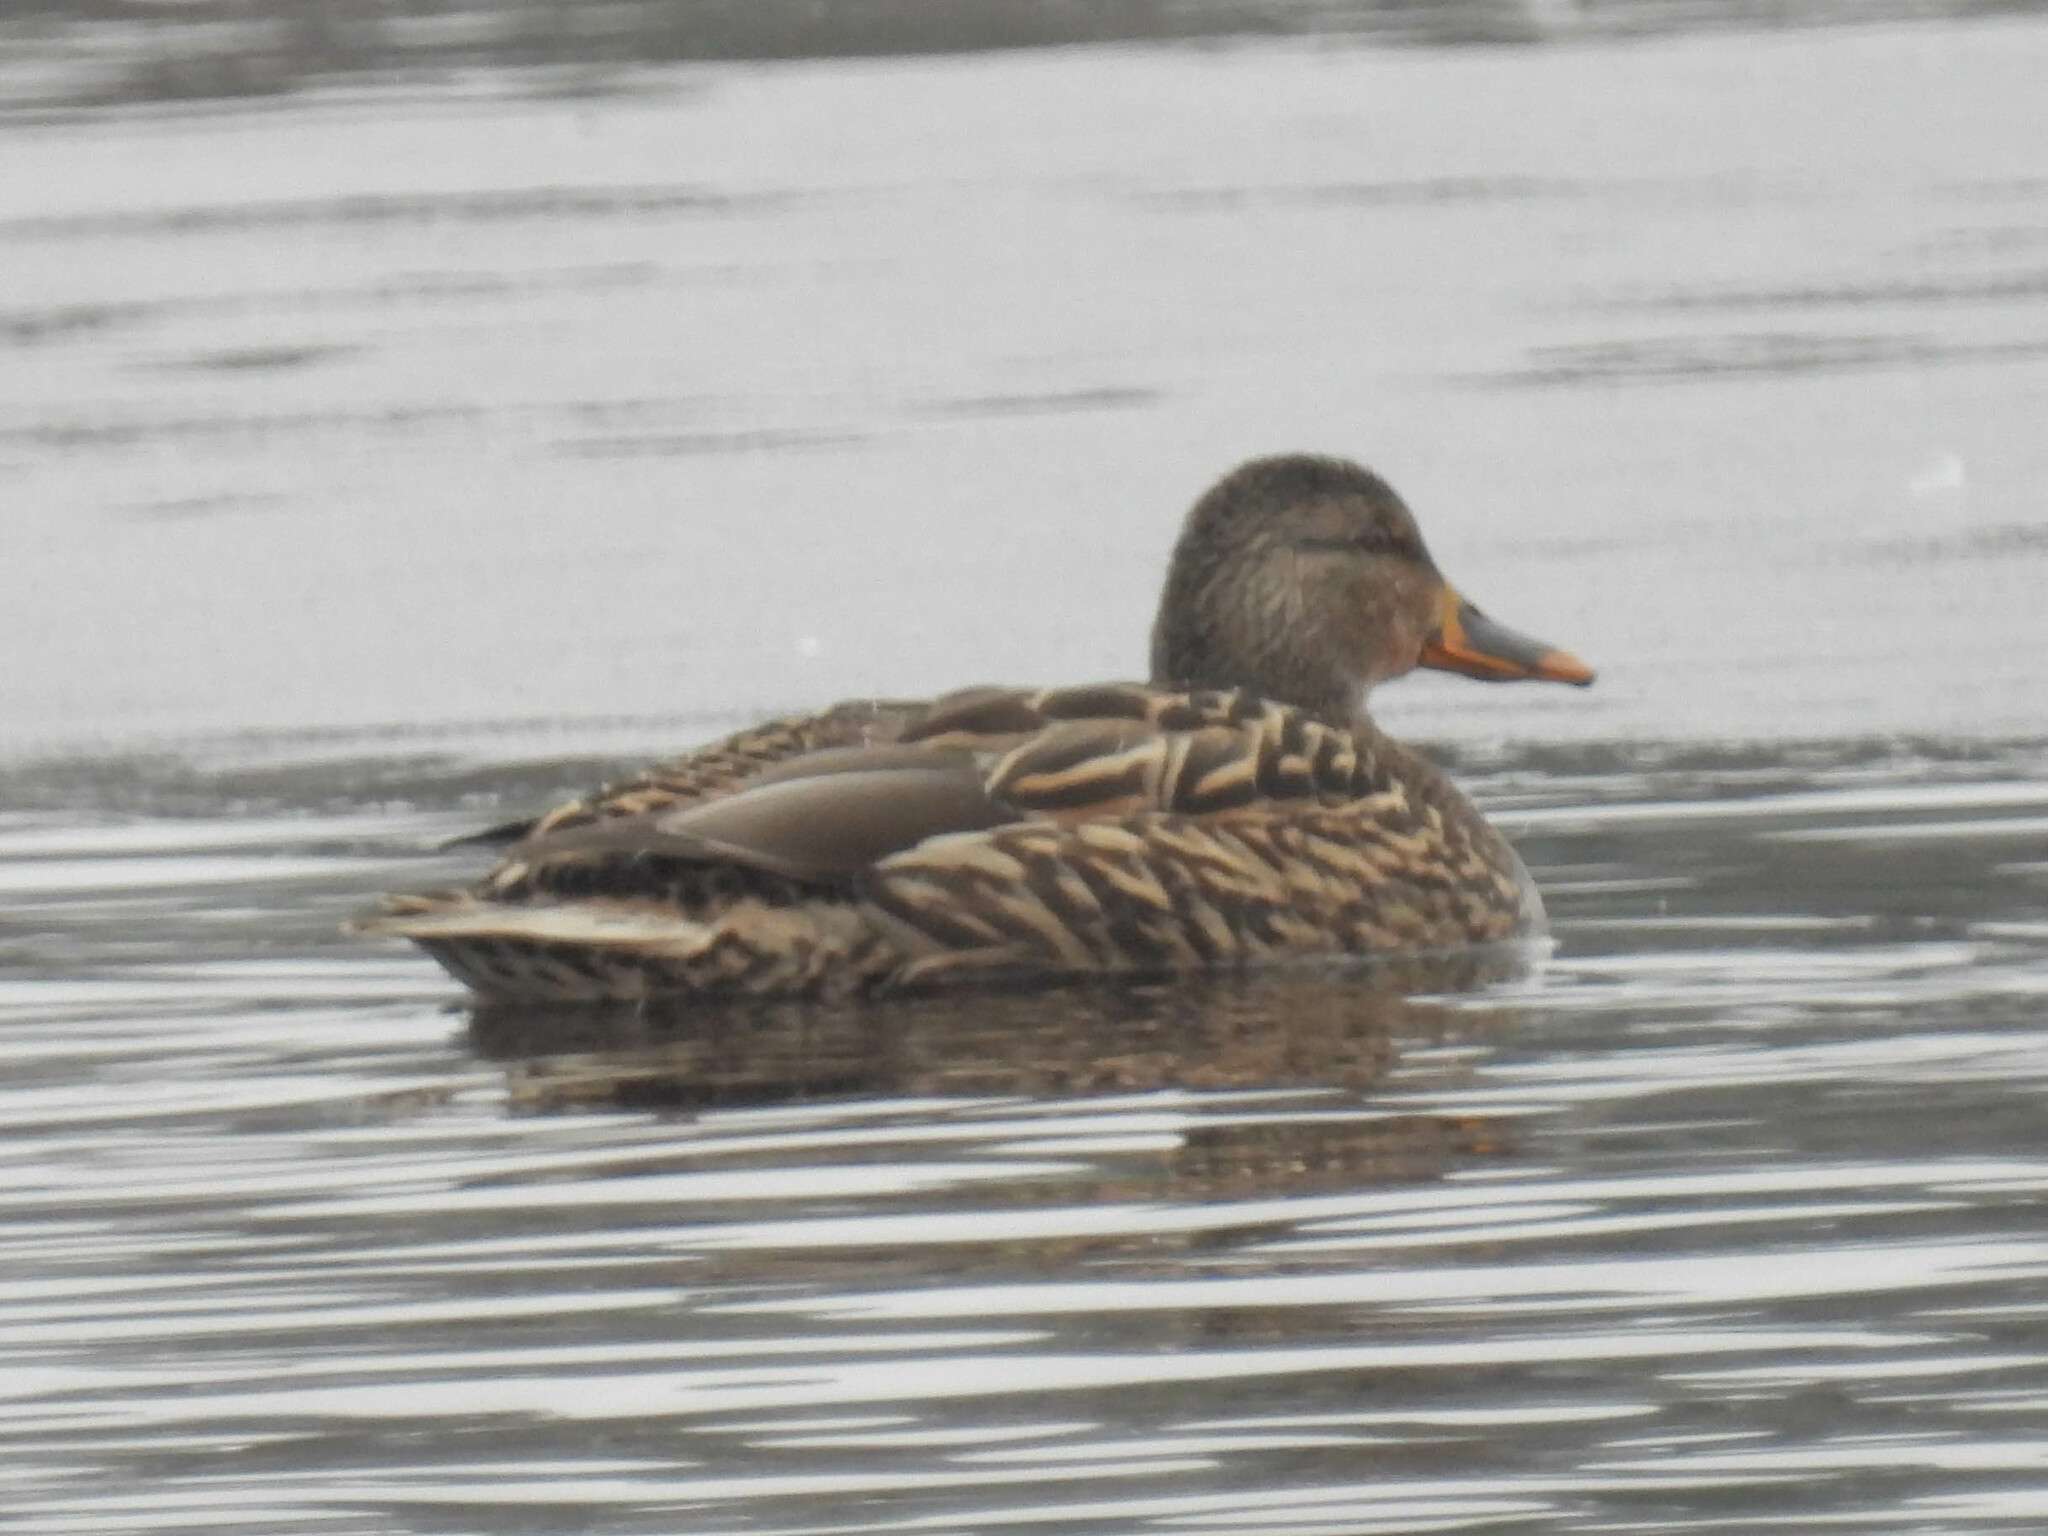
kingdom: Animalia
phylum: Chordata
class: Aves
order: Anseriformes
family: Anatidae
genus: Anas
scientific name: Anas platyrhynchos
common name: Mallard
